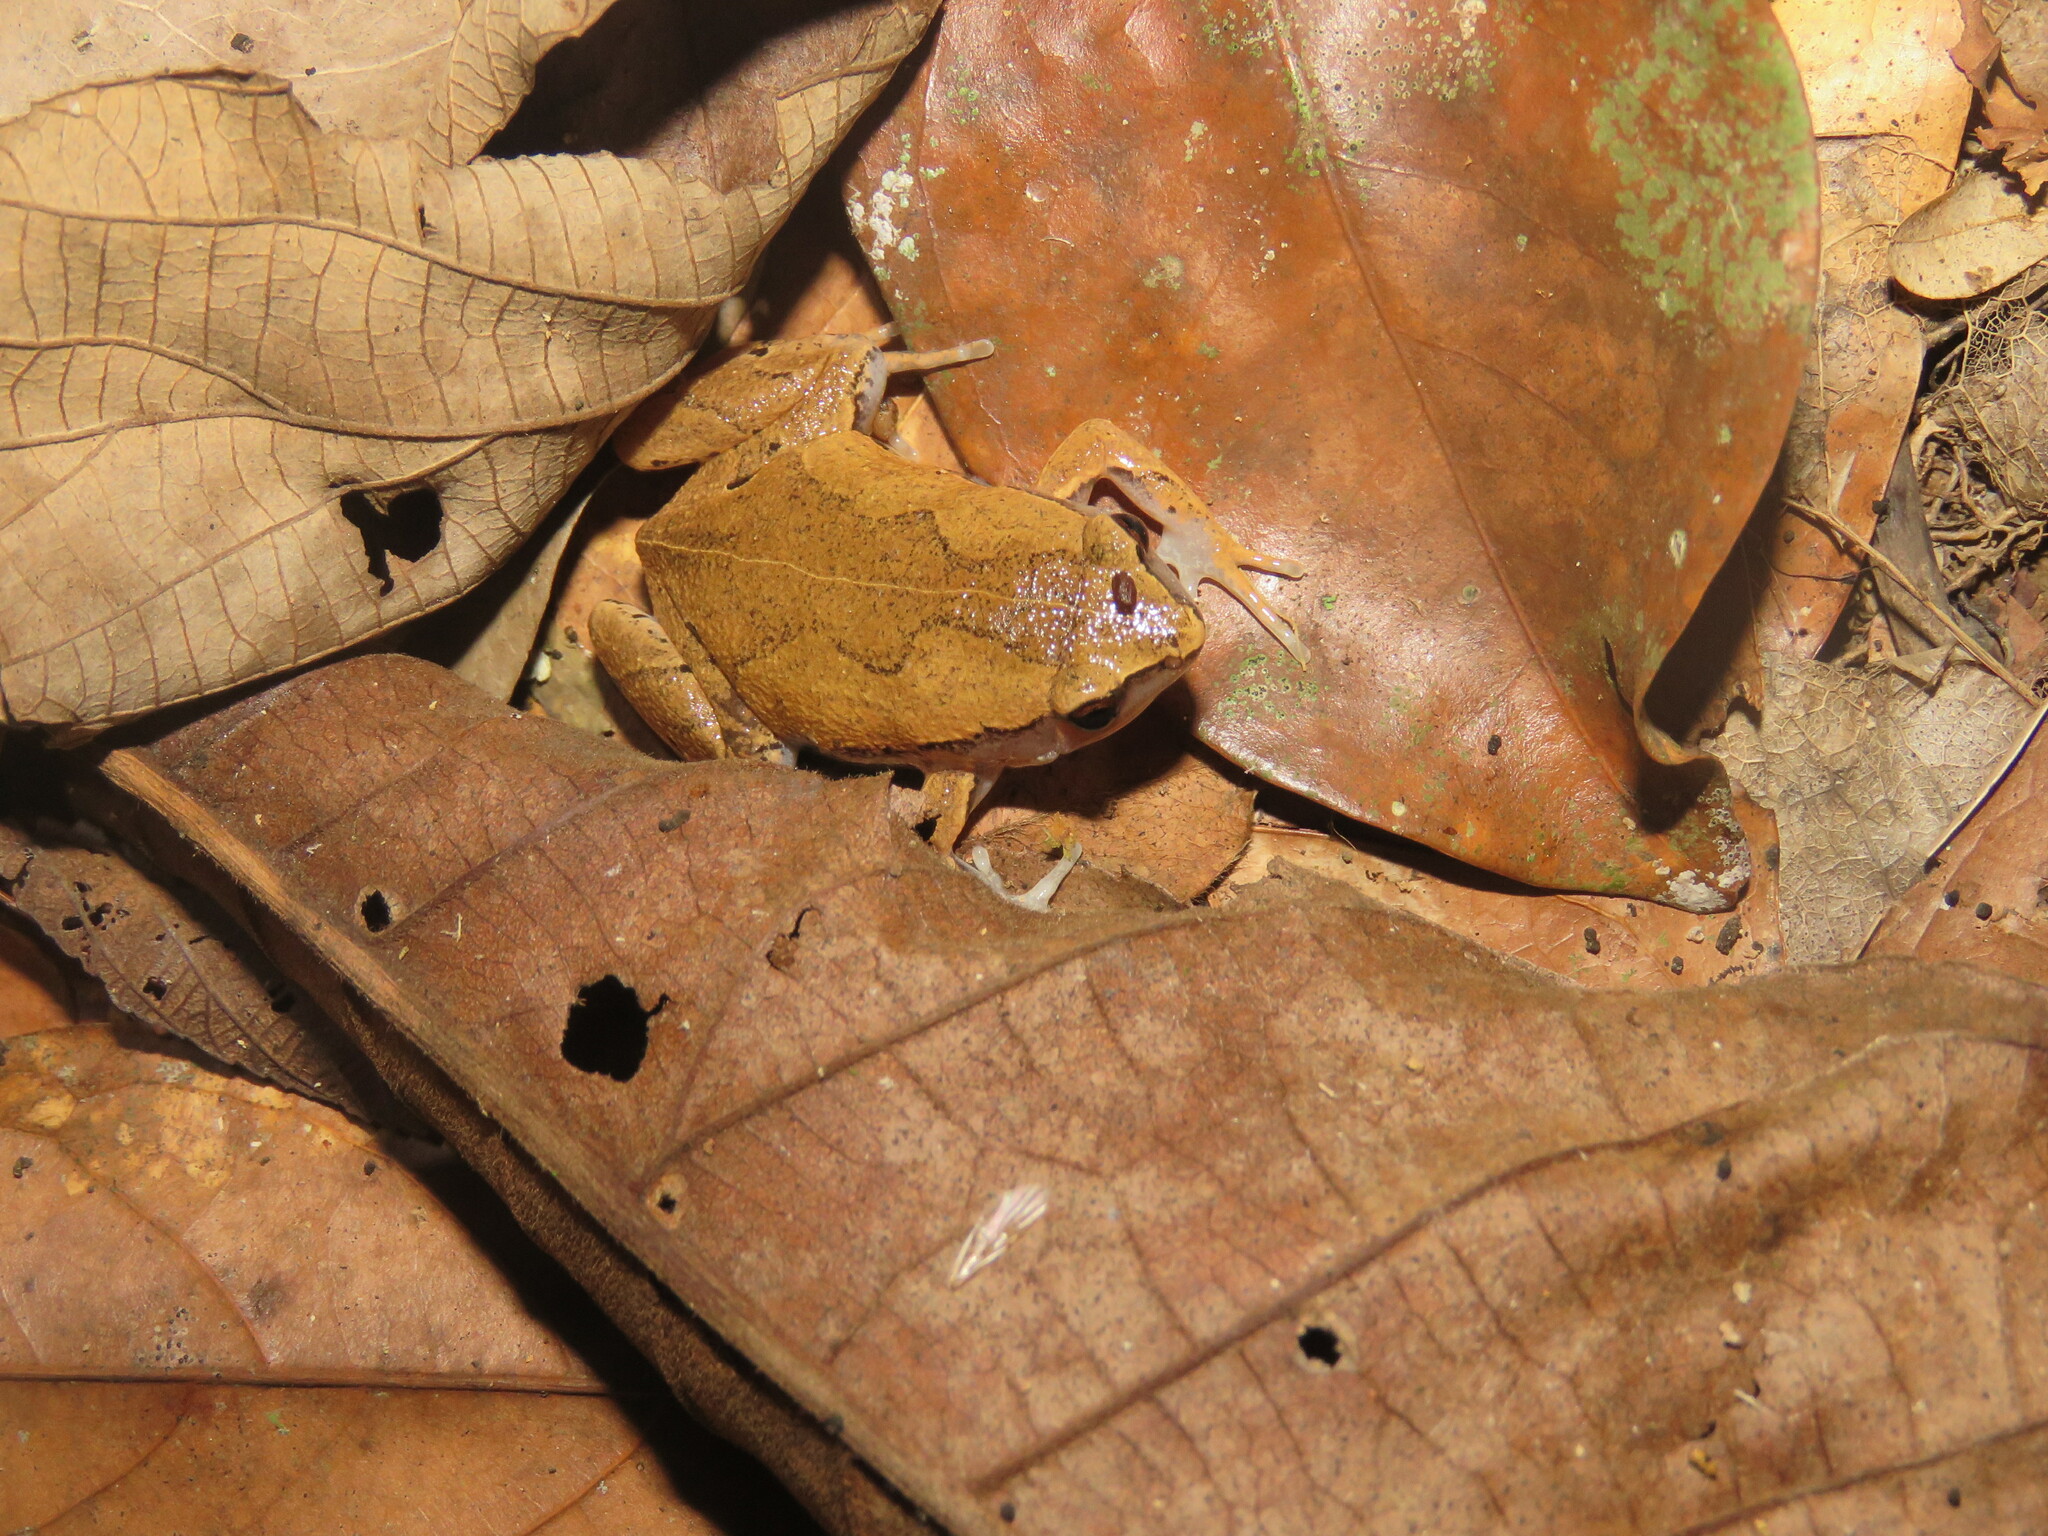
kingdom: Animalia
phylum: Chordata
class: Amphibia
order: Anura
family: Microhylidae
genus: Hamptophryne
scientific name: Hamptophryne boliviana
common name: Bolivian bleating frog
